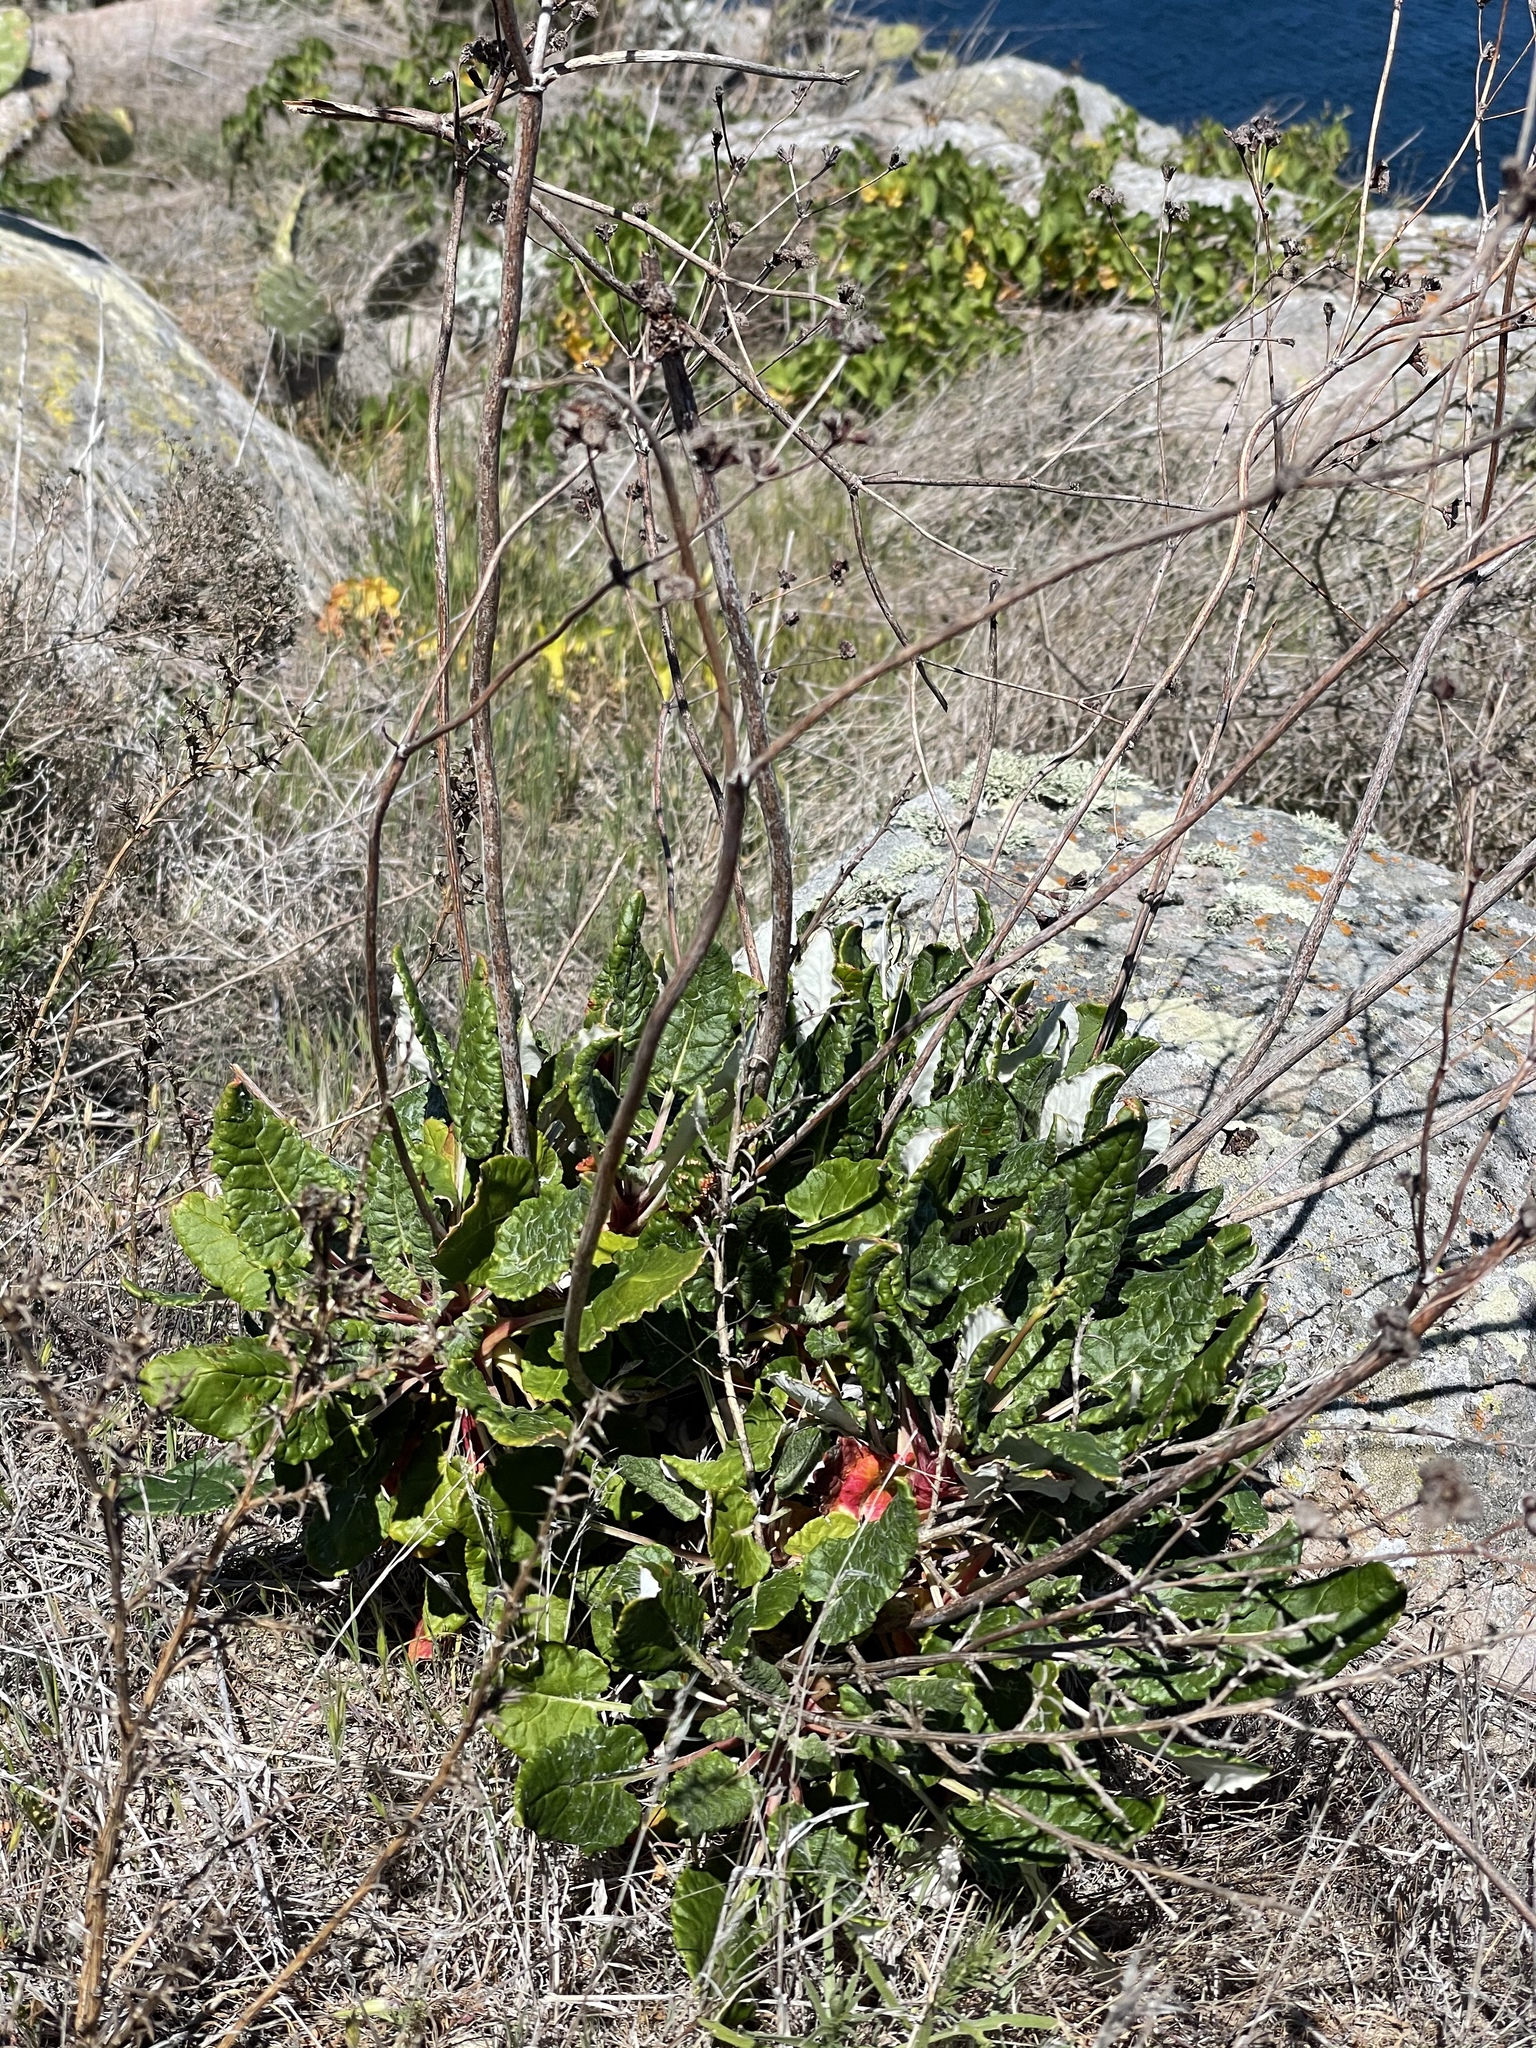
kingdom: Plantae
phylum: Tracheophyta
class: Magnoliopsida
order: Caryophyllales
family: Polygonaceae
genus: Eriogonum
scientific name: Eriogonum grande
